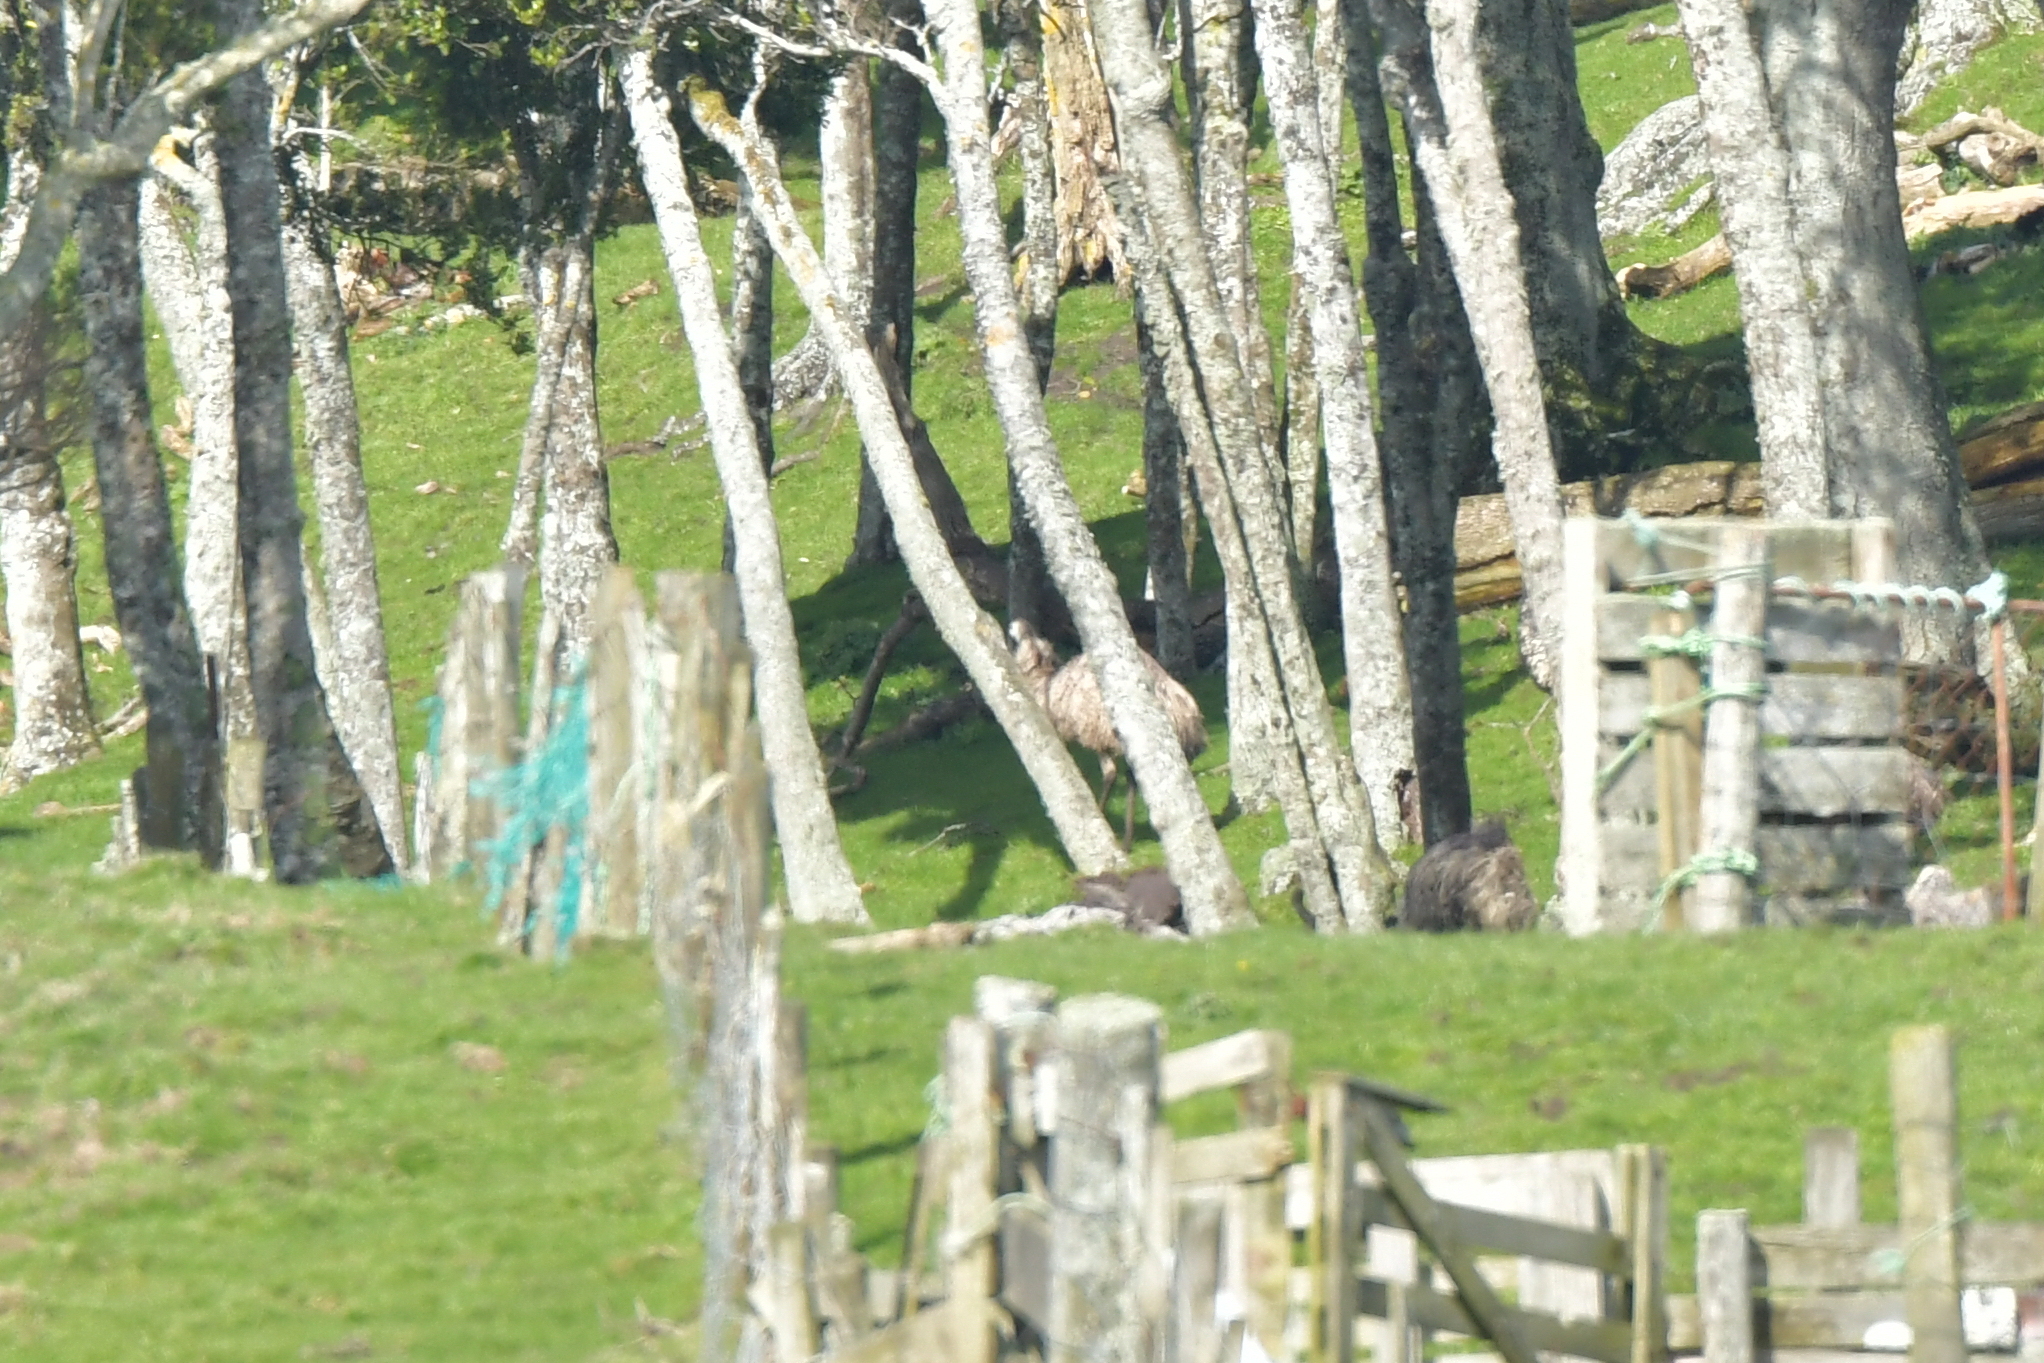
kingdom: Animalia
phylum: Chordata
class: Aves
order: Casuariiformes
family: Dromaiidae
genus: Dromaius
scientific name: Dromaius novaehollandiae
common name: Emu
